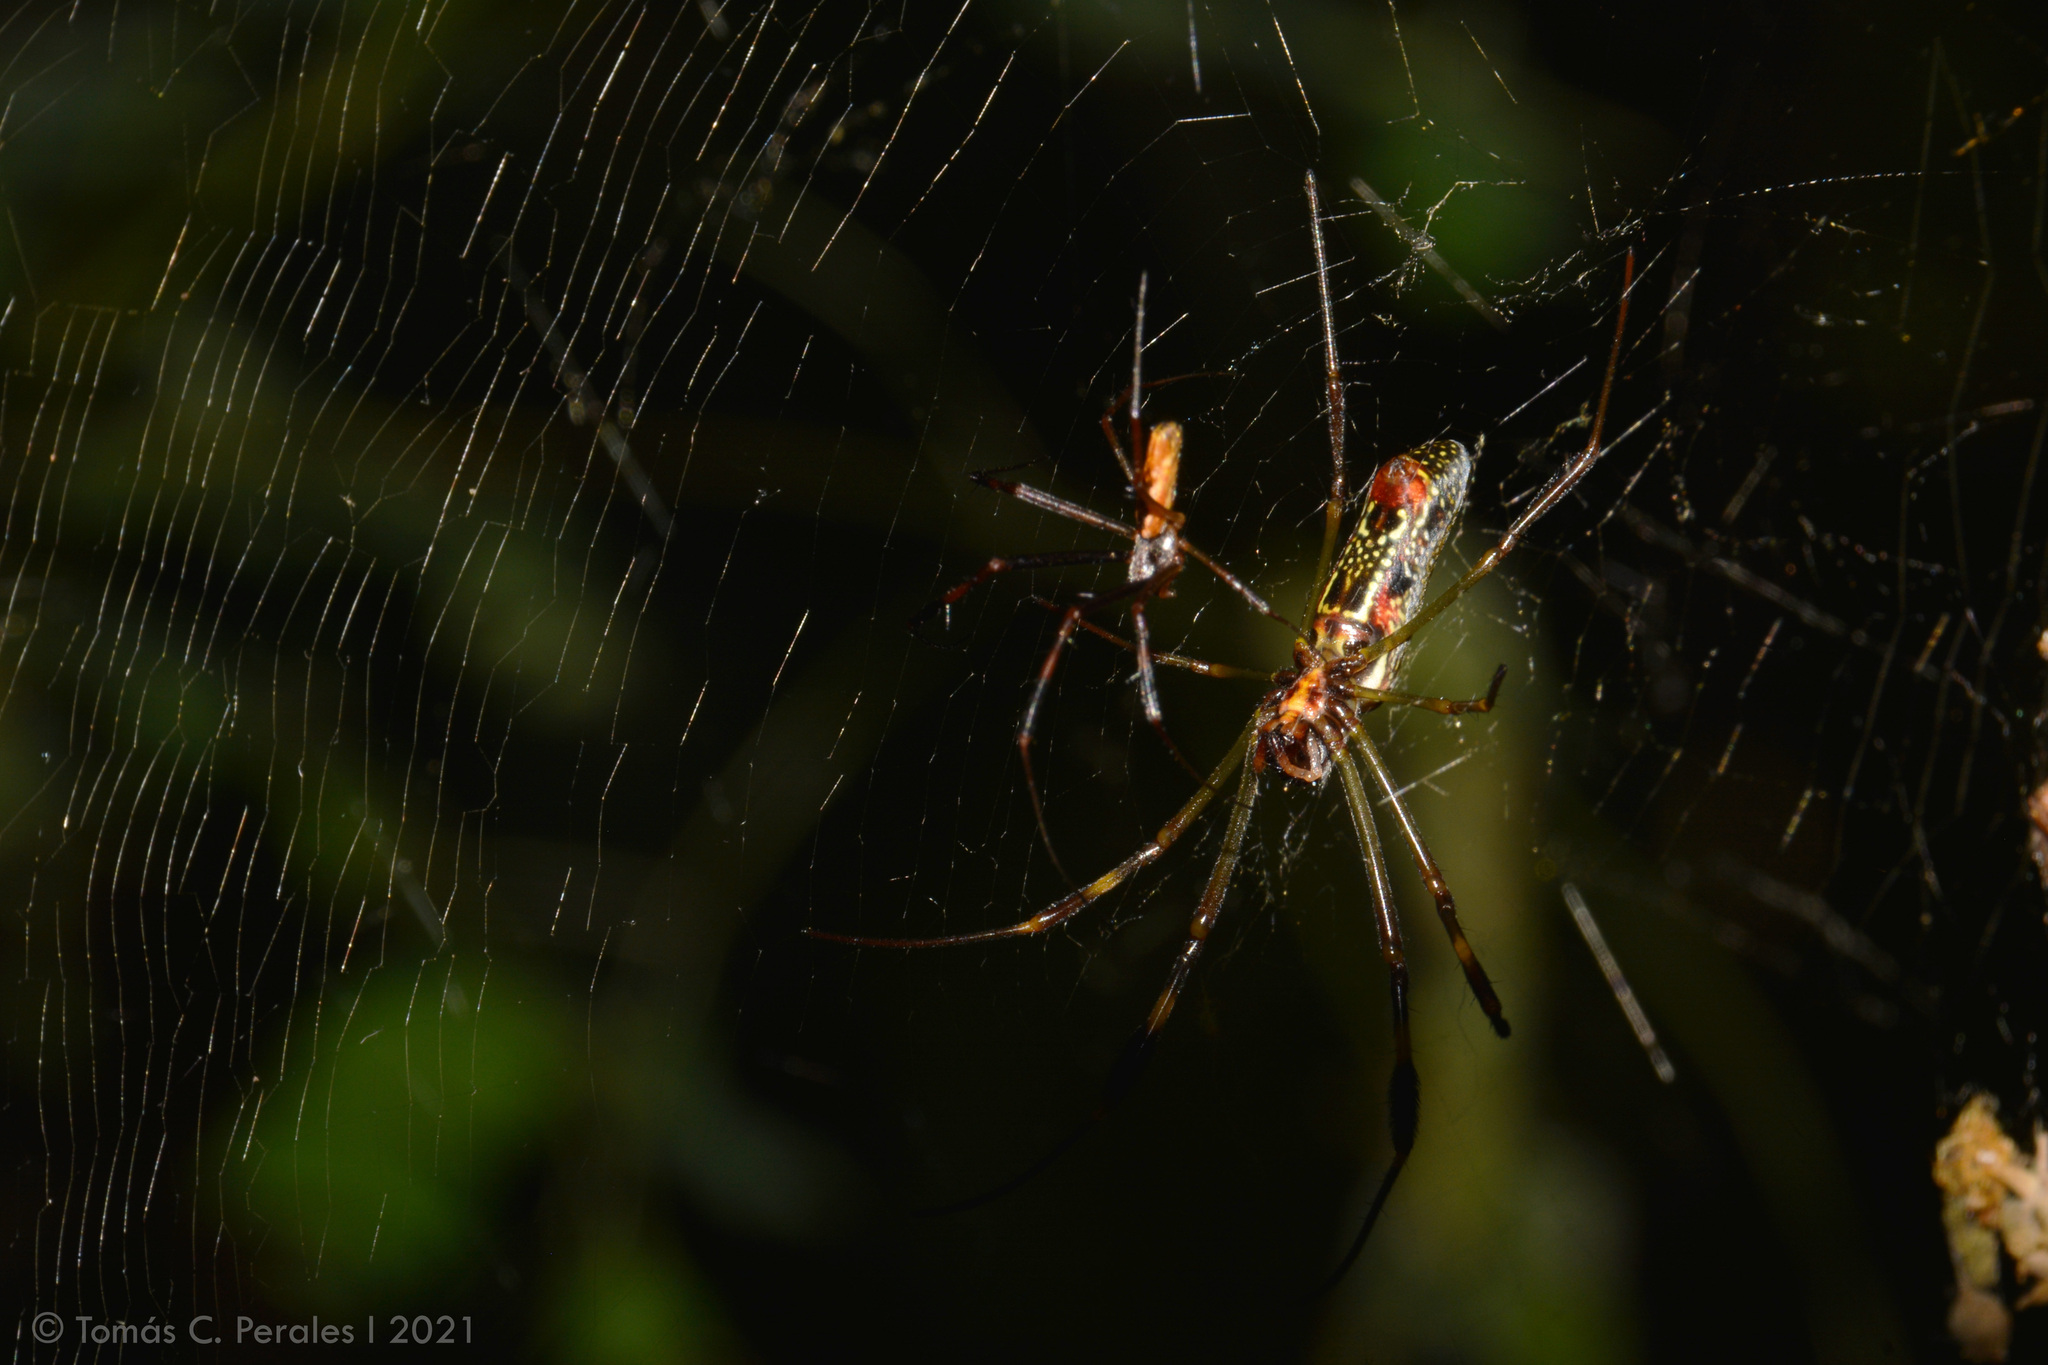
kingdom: Animalia
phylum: Arthropoda
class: Arachnida
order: Araneae
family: Araneidae
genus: Trichonephila
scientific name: Trichonephila clavipes
